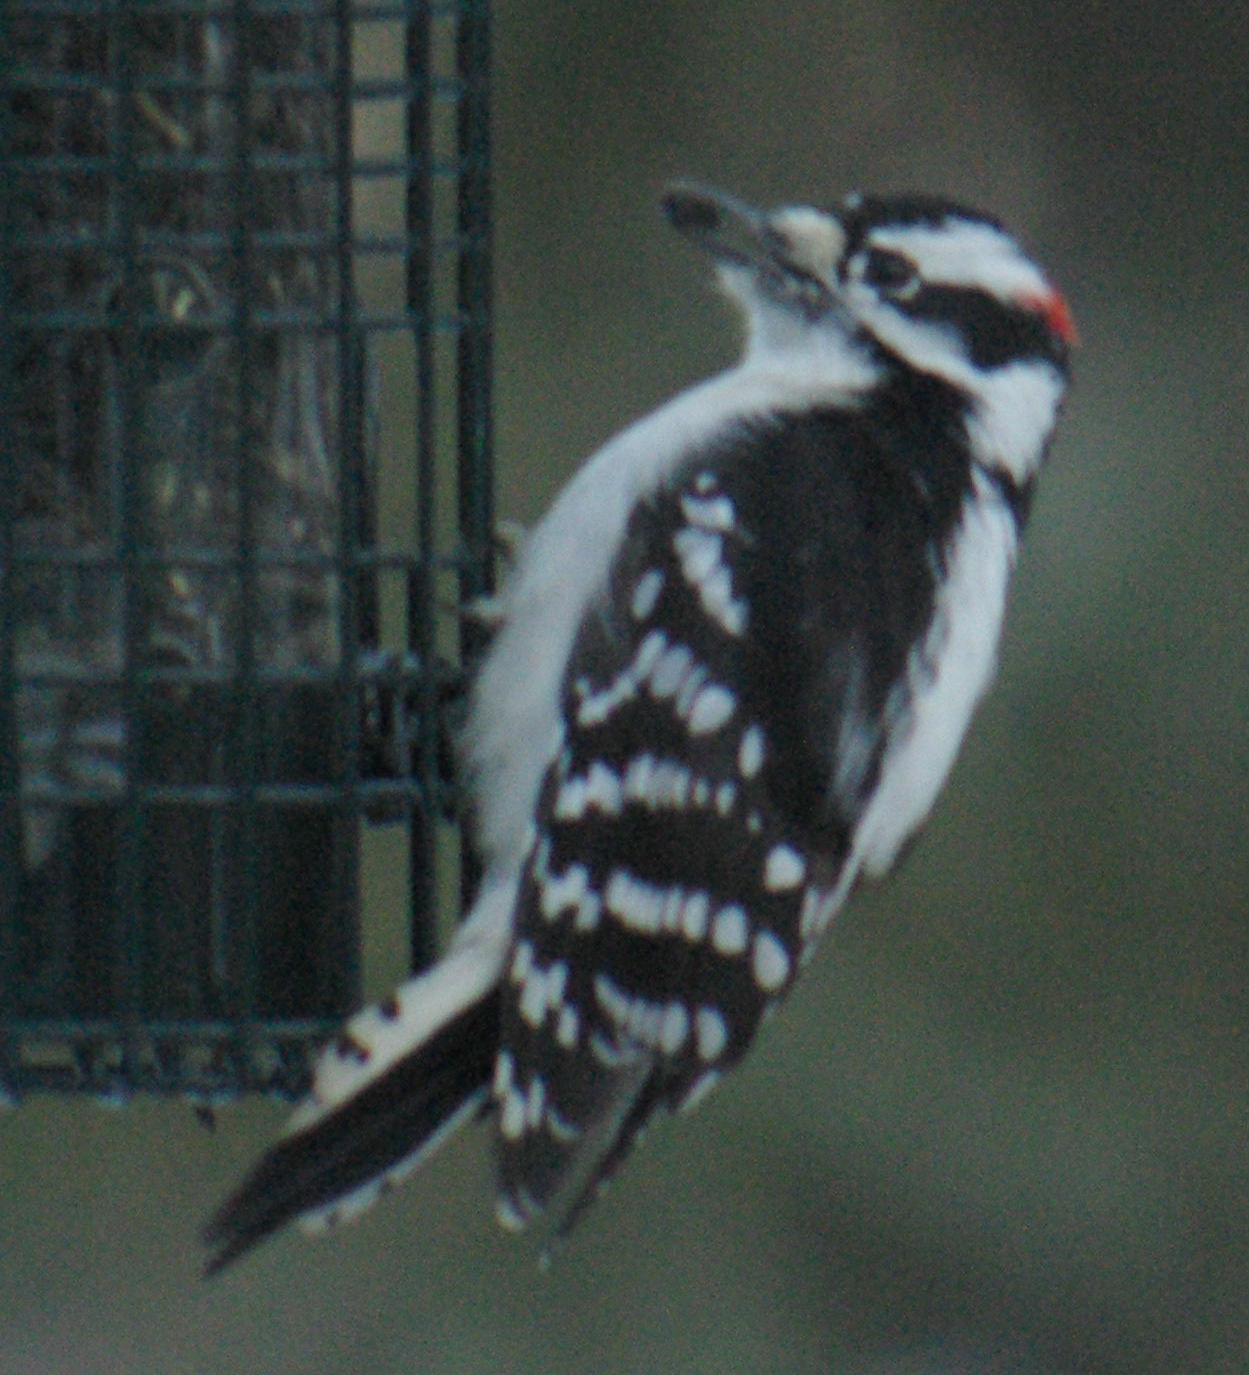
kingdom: Animalia
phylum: Chordata
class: Aves
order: Piciformes
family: Picidae
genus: Dryobates
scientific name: Dryobates pubescens
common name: Downy woodpecker
